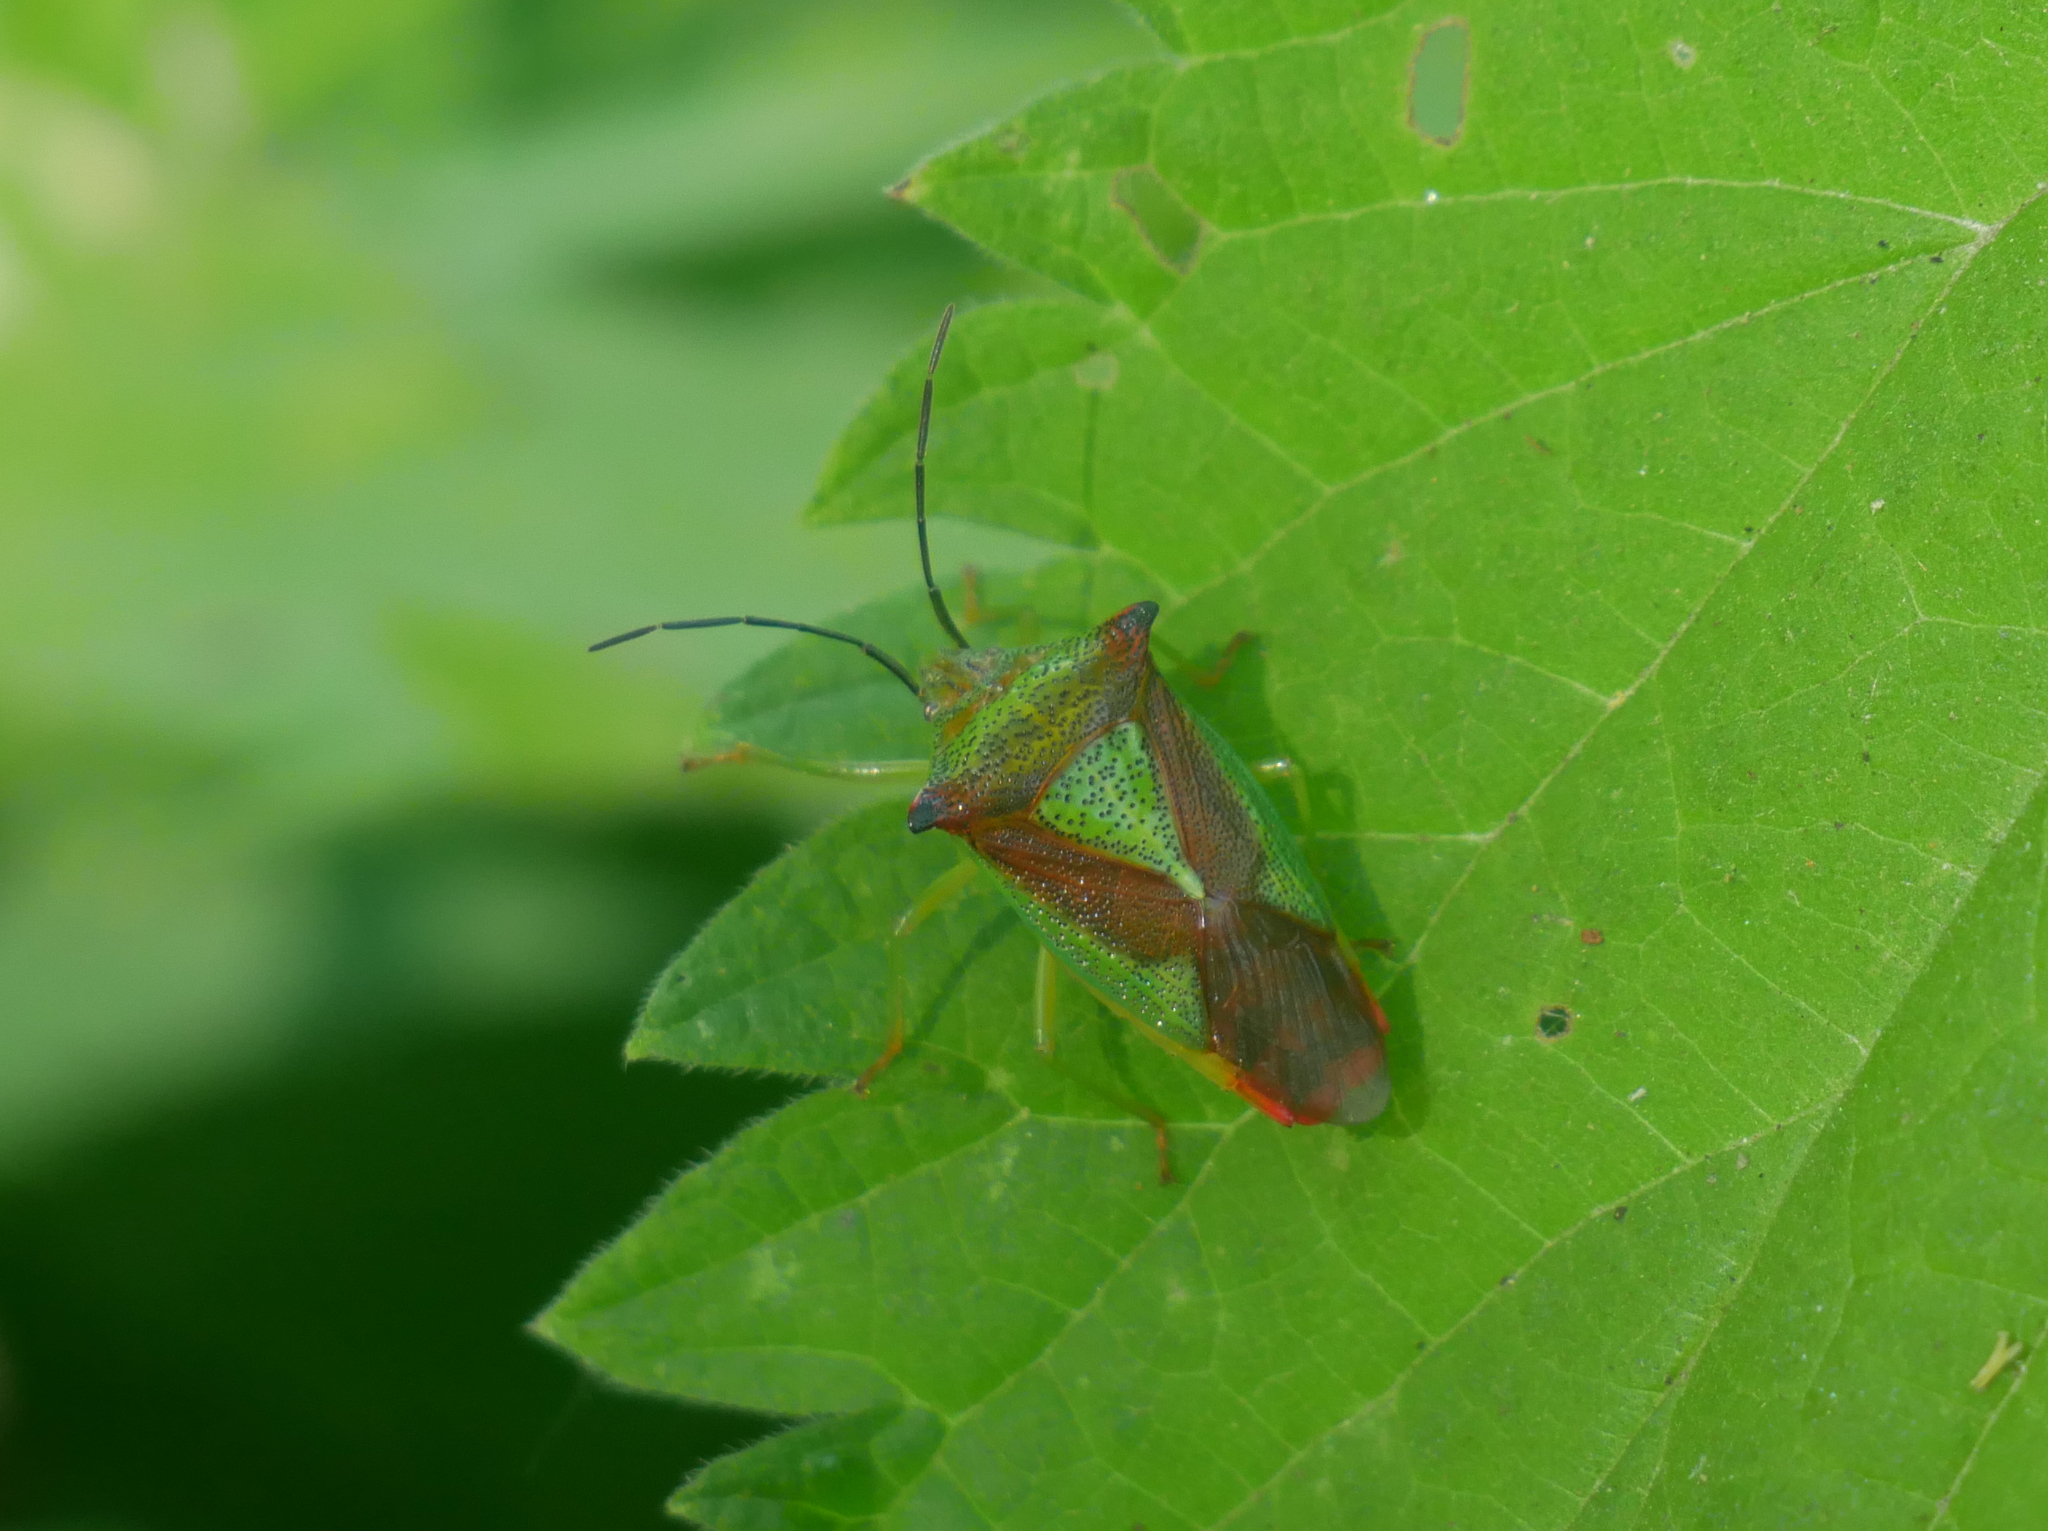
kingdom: Animalia
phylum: Arthropoda
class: Insecta
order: Hemiptera
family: Acanthosomatidae
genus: Acanthosoma
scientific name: Acanthosoma haemorrhoidale
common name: Hawthorn shieldbug
